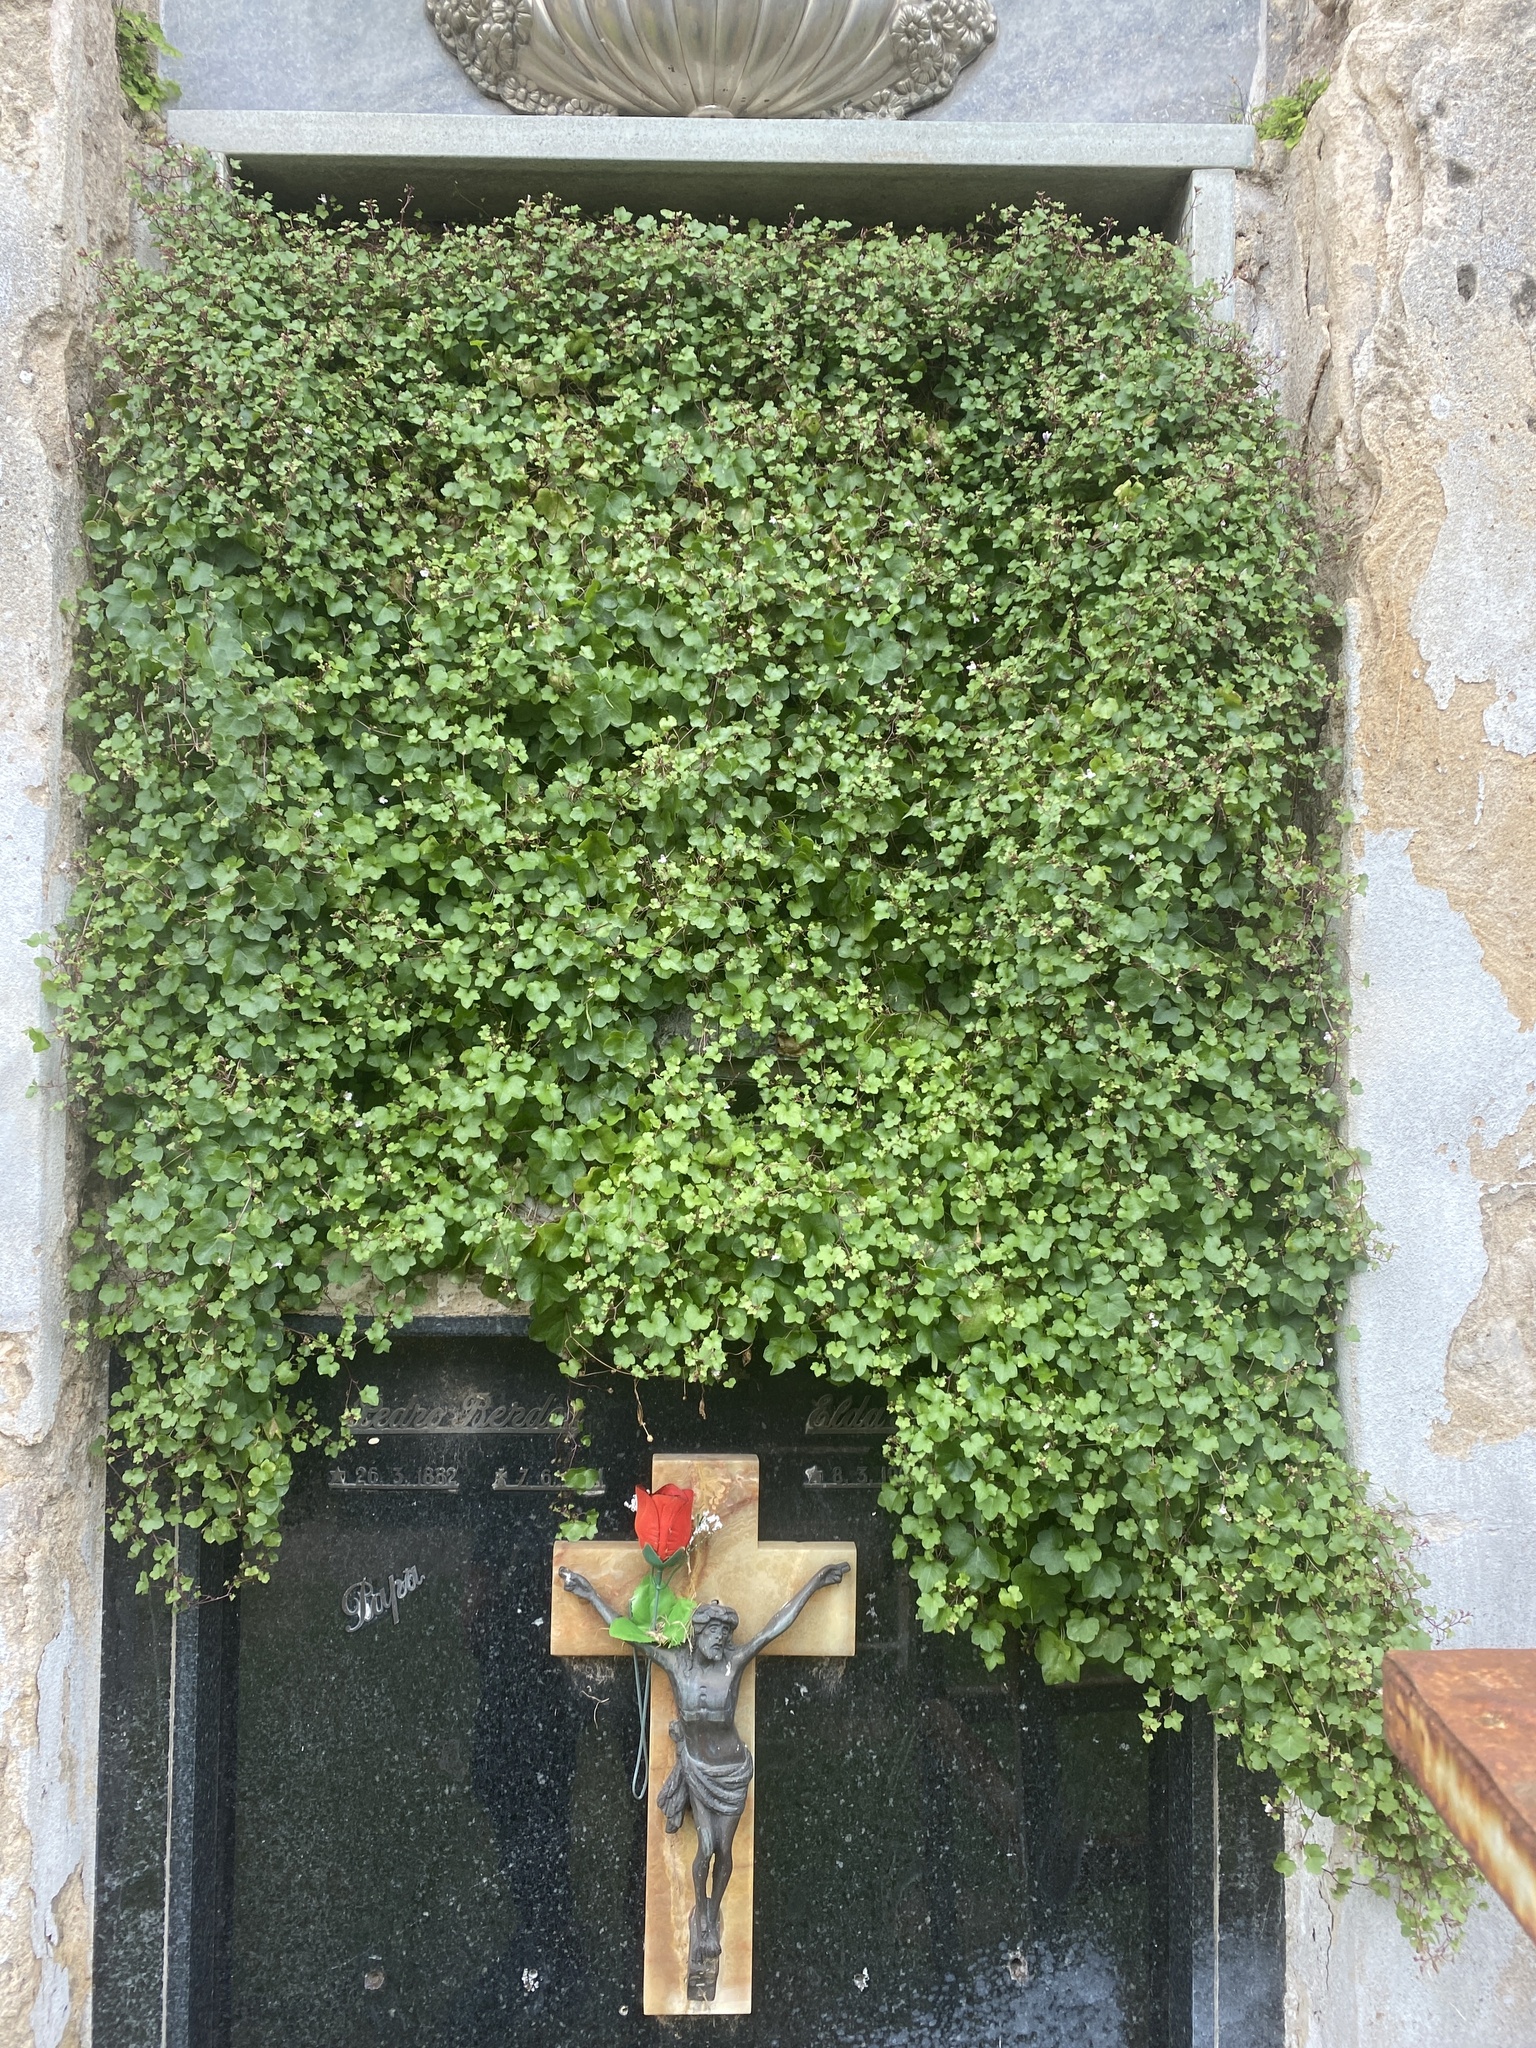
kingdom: Plantae
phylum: Tracheophyta
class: Magnoliopsida
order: Lamiales
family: Plantaginaceae
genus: Cymbalaria
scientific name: Cymbalaria muralis
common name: Ivy-leaved toadflax
